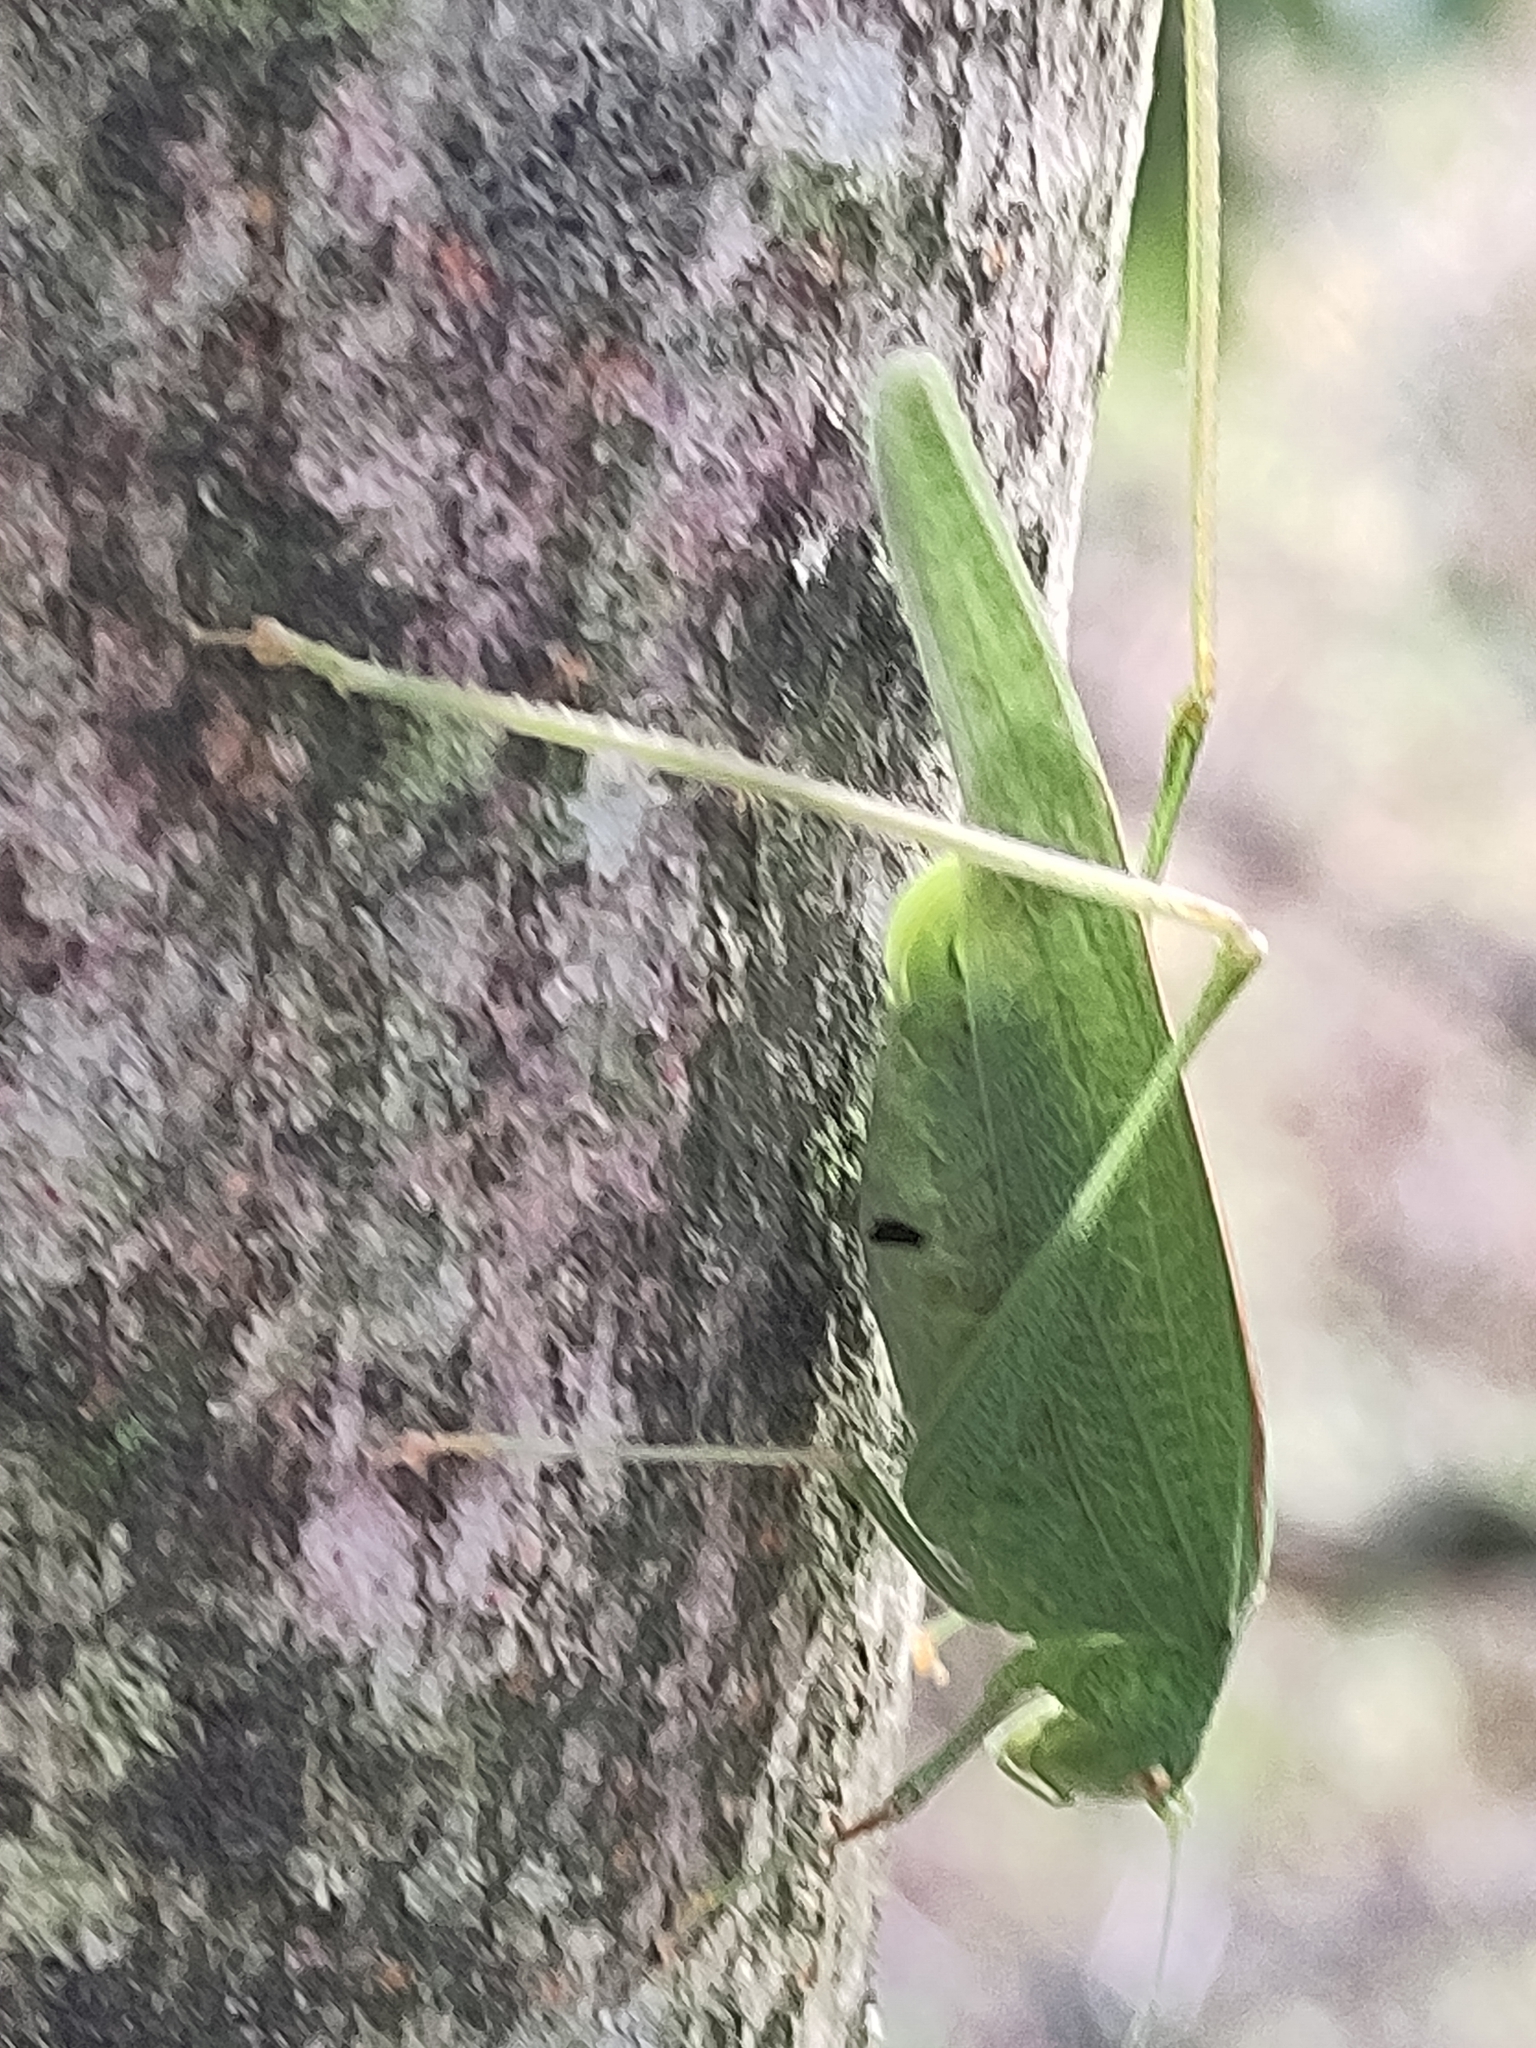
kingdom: Animalia
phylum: Arthropoda
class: Insecta
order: Orthoptera
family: Tettigoniidae
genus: Phaneroptera
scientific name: Phaneroptera nana
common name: Southern sickle bush-cricket
